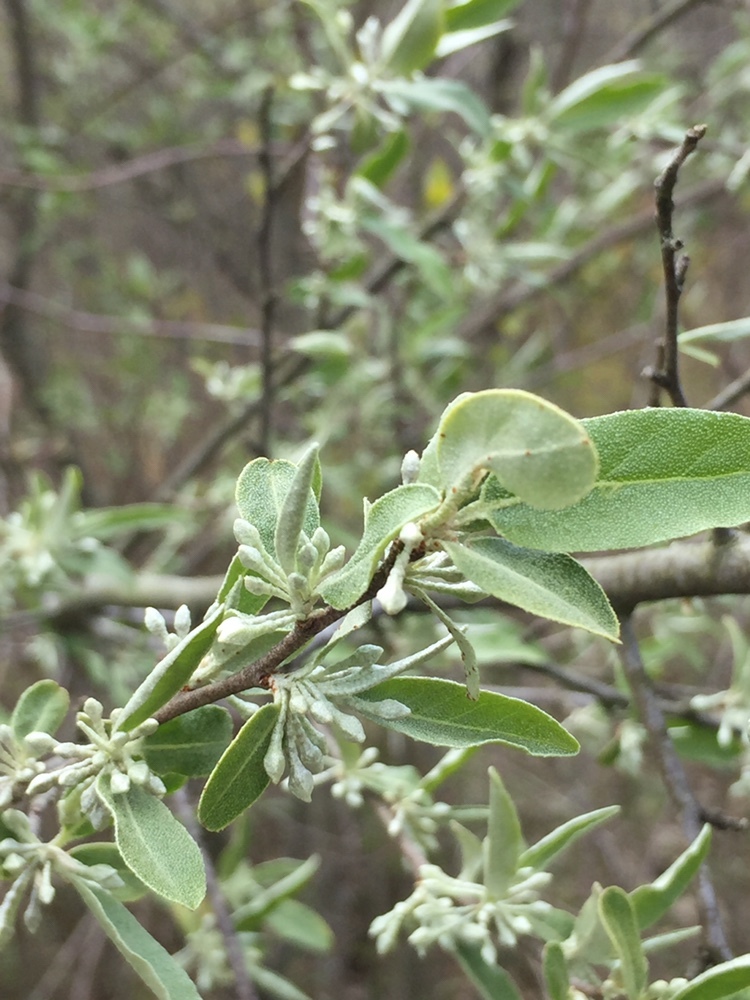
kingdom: Plantae
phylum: Tracheophyta
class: Magnoliopsida
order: Rosales
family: Elaeagnaceae
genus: Elaeagnus
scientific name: Elaeagnus umbellata
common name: Autumn olive
